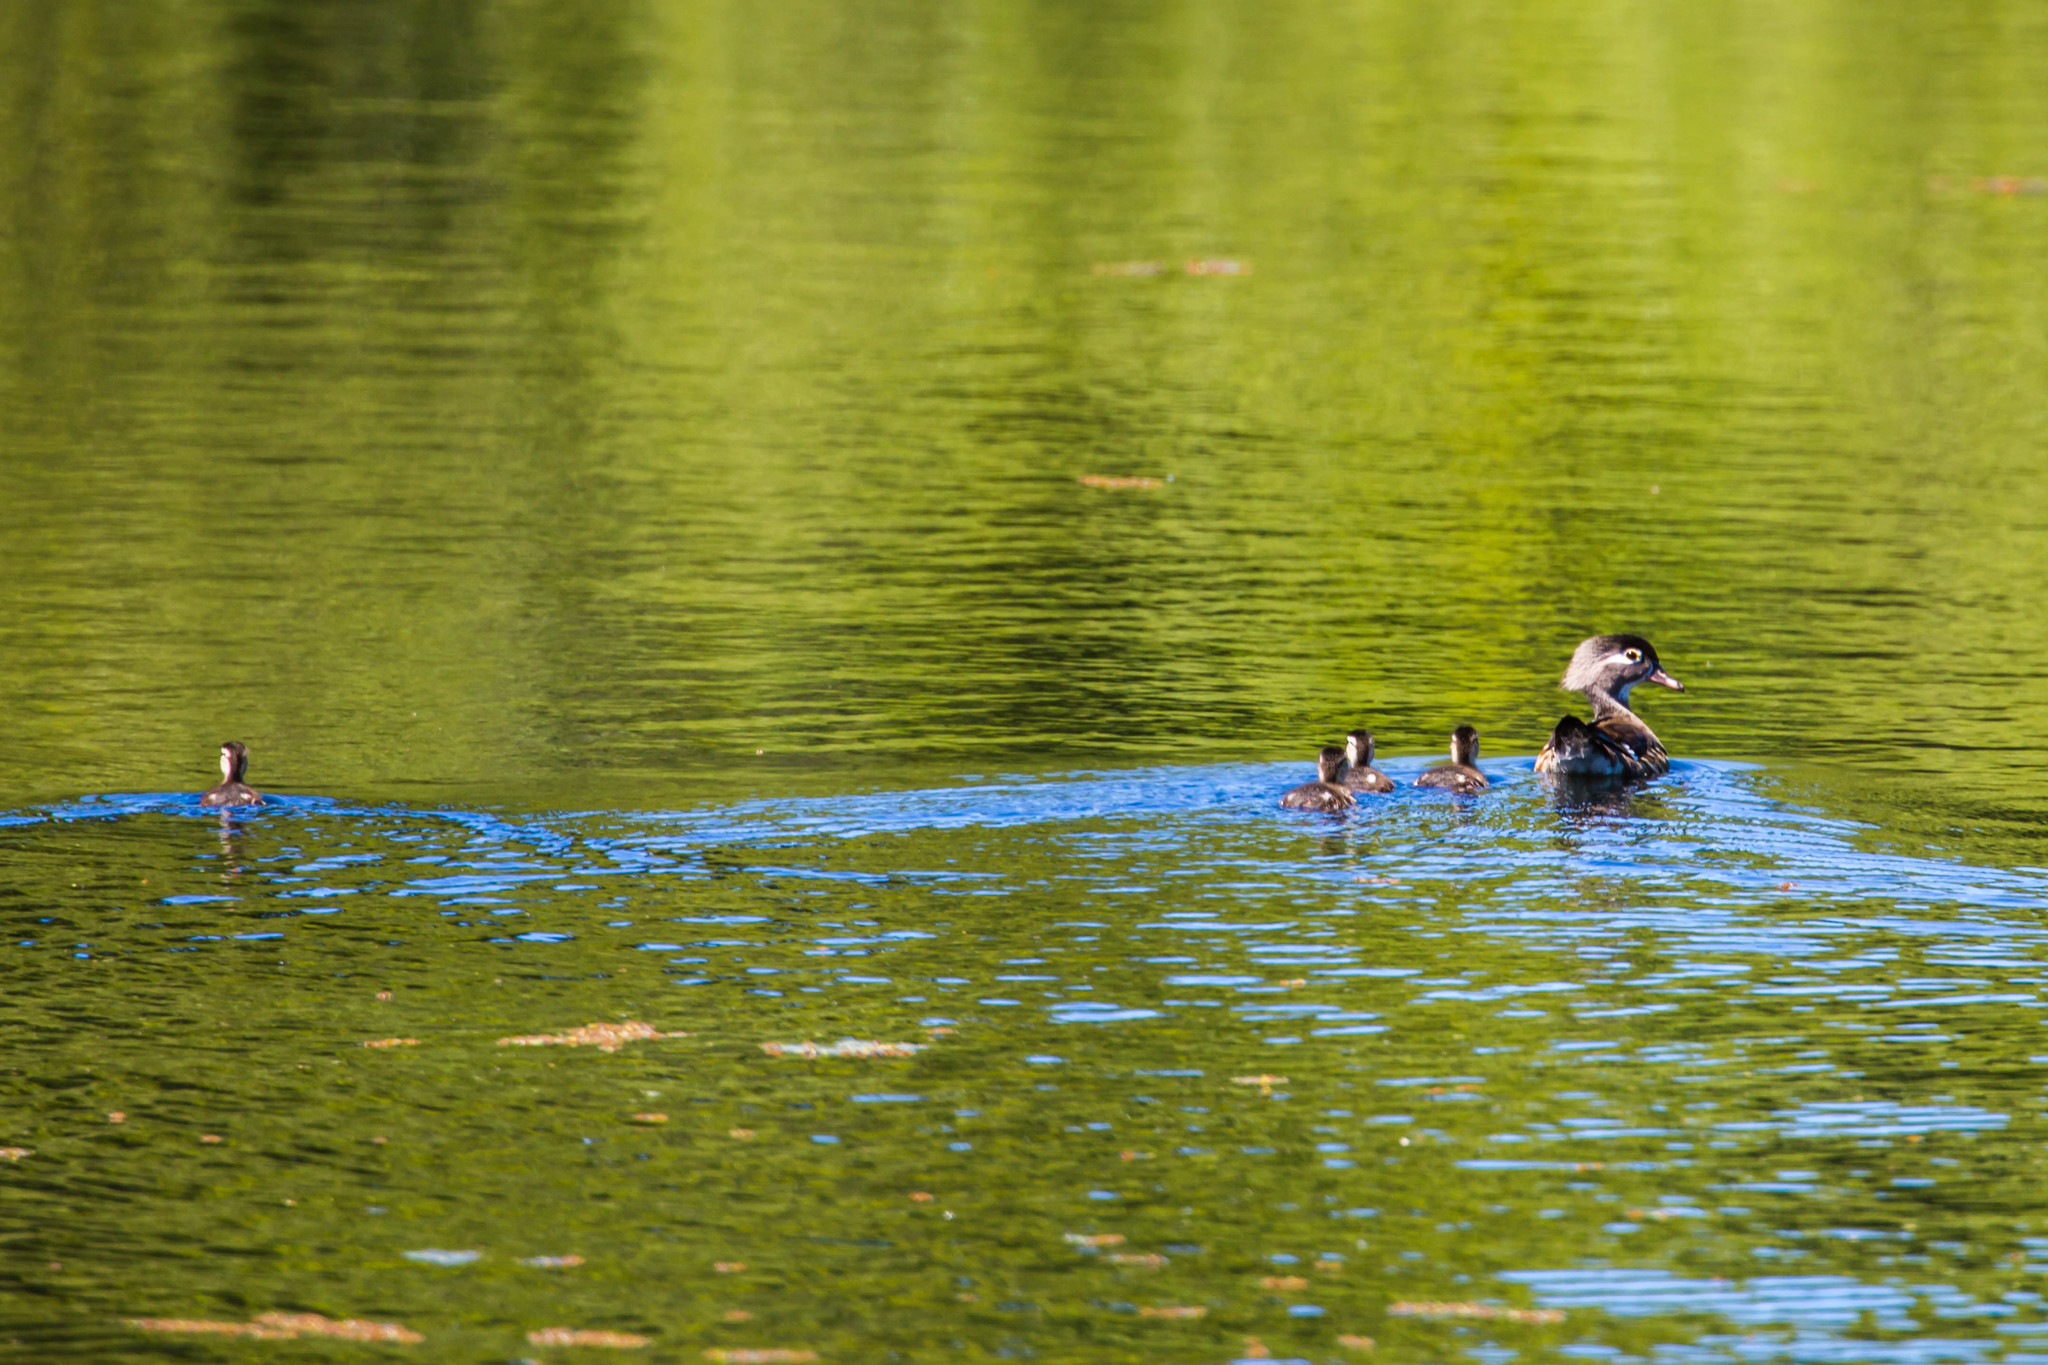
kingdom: Animalia
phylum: Chordata
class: Aves
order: Anseriformes
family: Anatidae
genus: Aix
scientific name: Aix sponsa
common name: Wood duck
